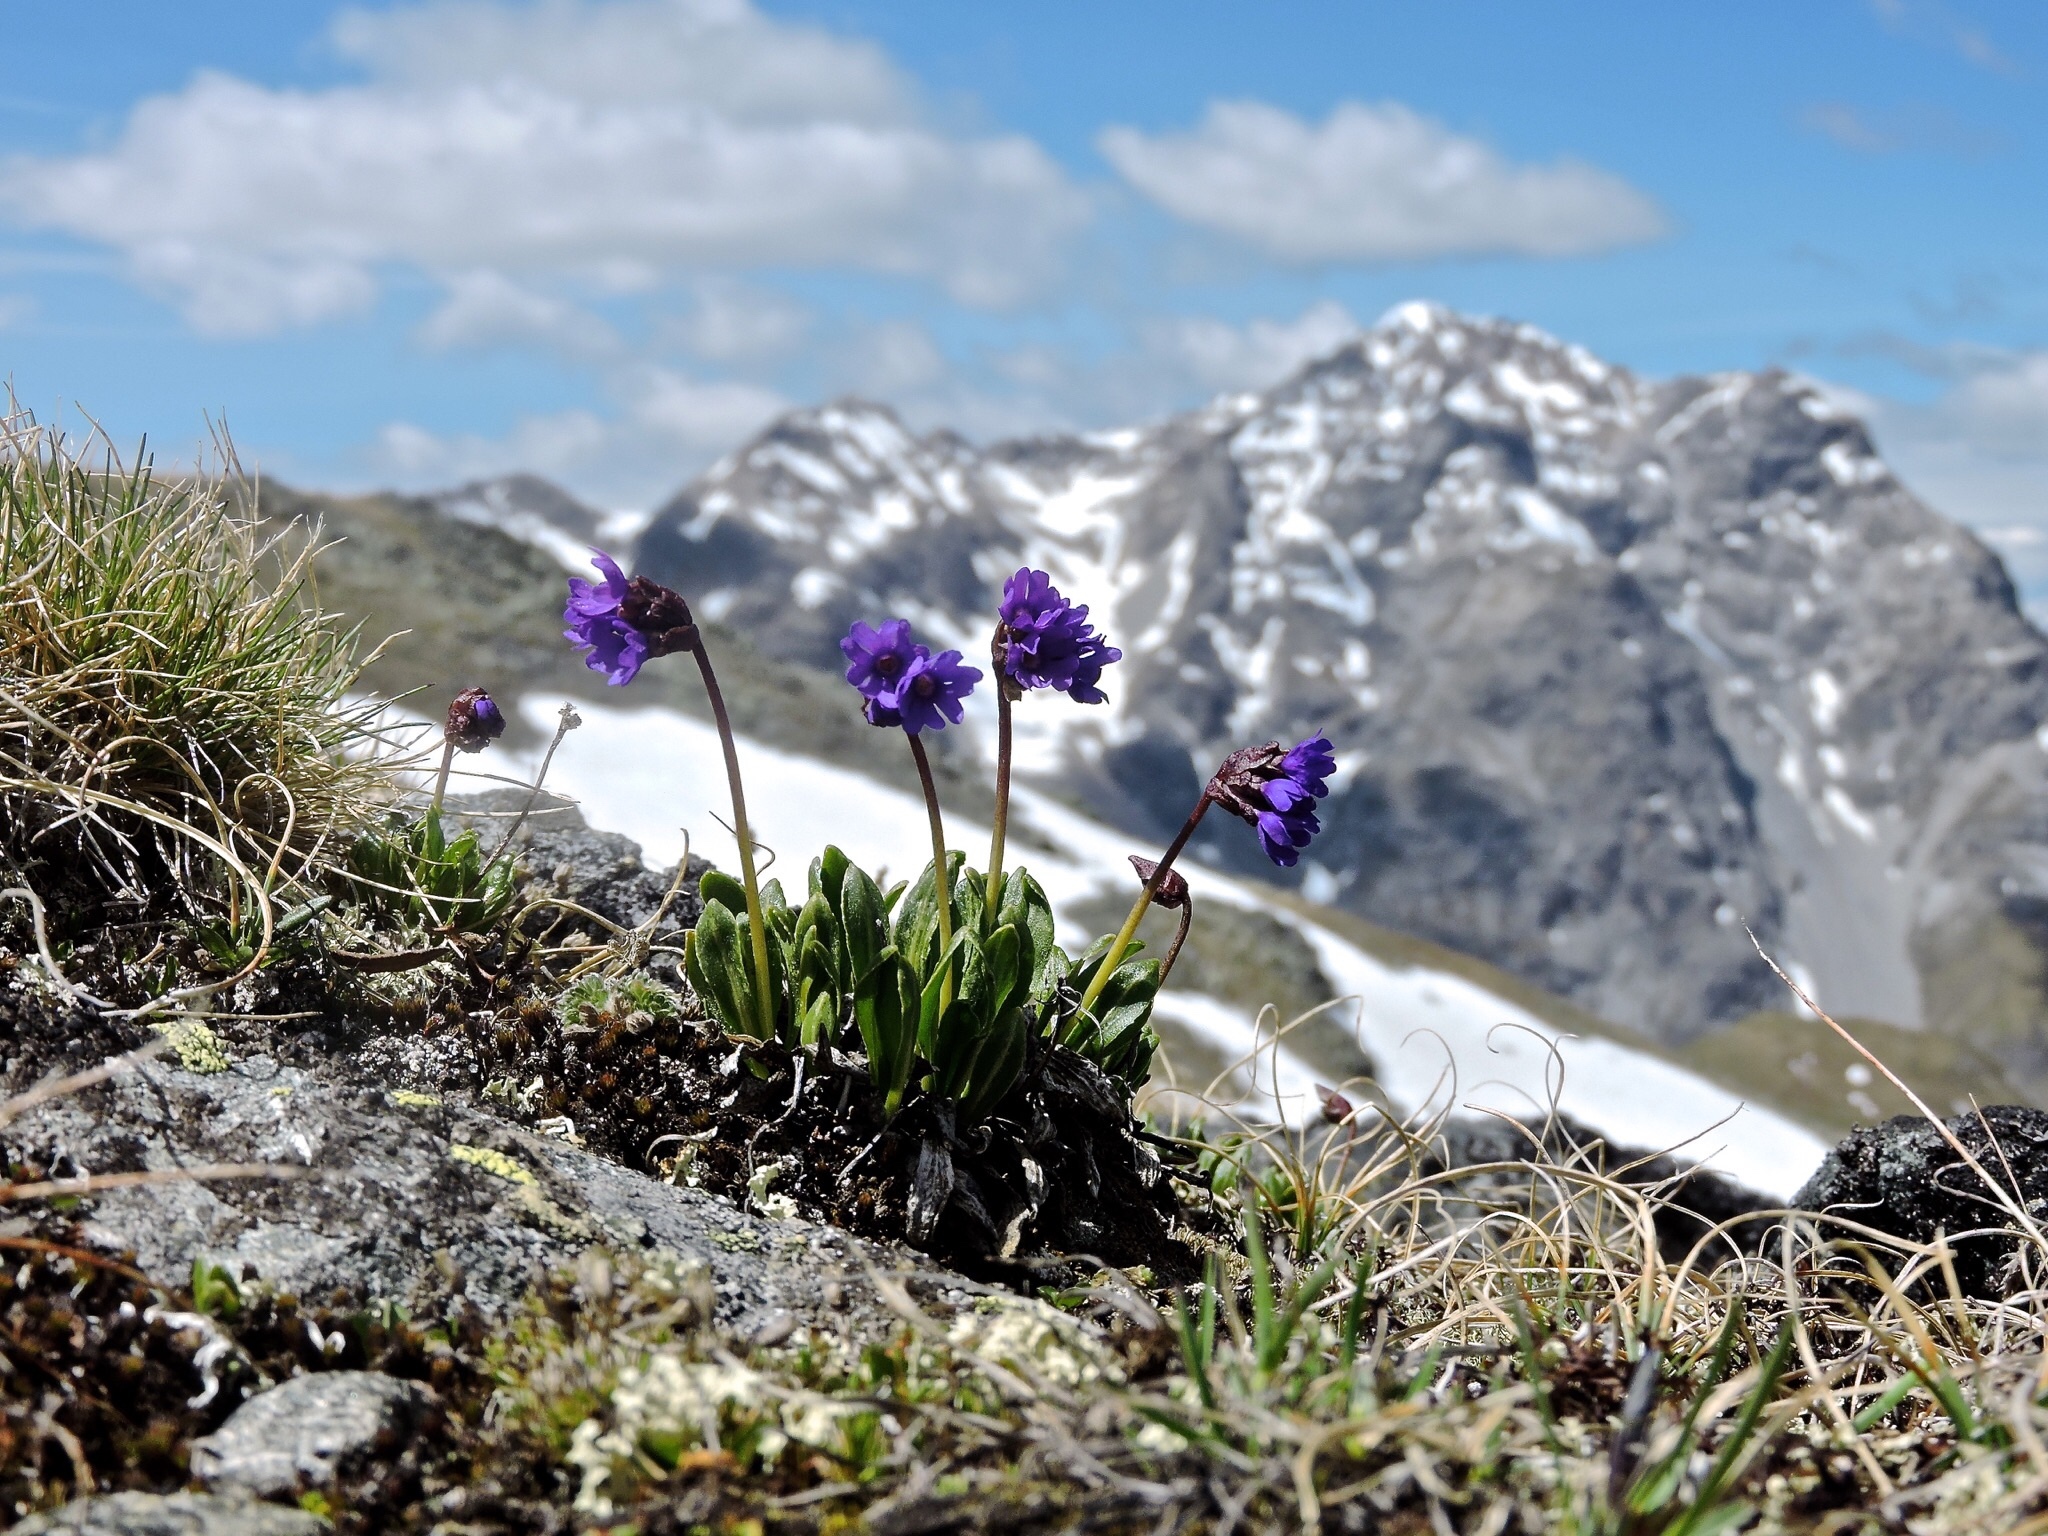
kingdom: Plantae
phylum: Tracheophyta
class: Magnoliopsida
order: Ericales
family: Primulaceae
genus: Primula
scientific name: Primula glutinosa
